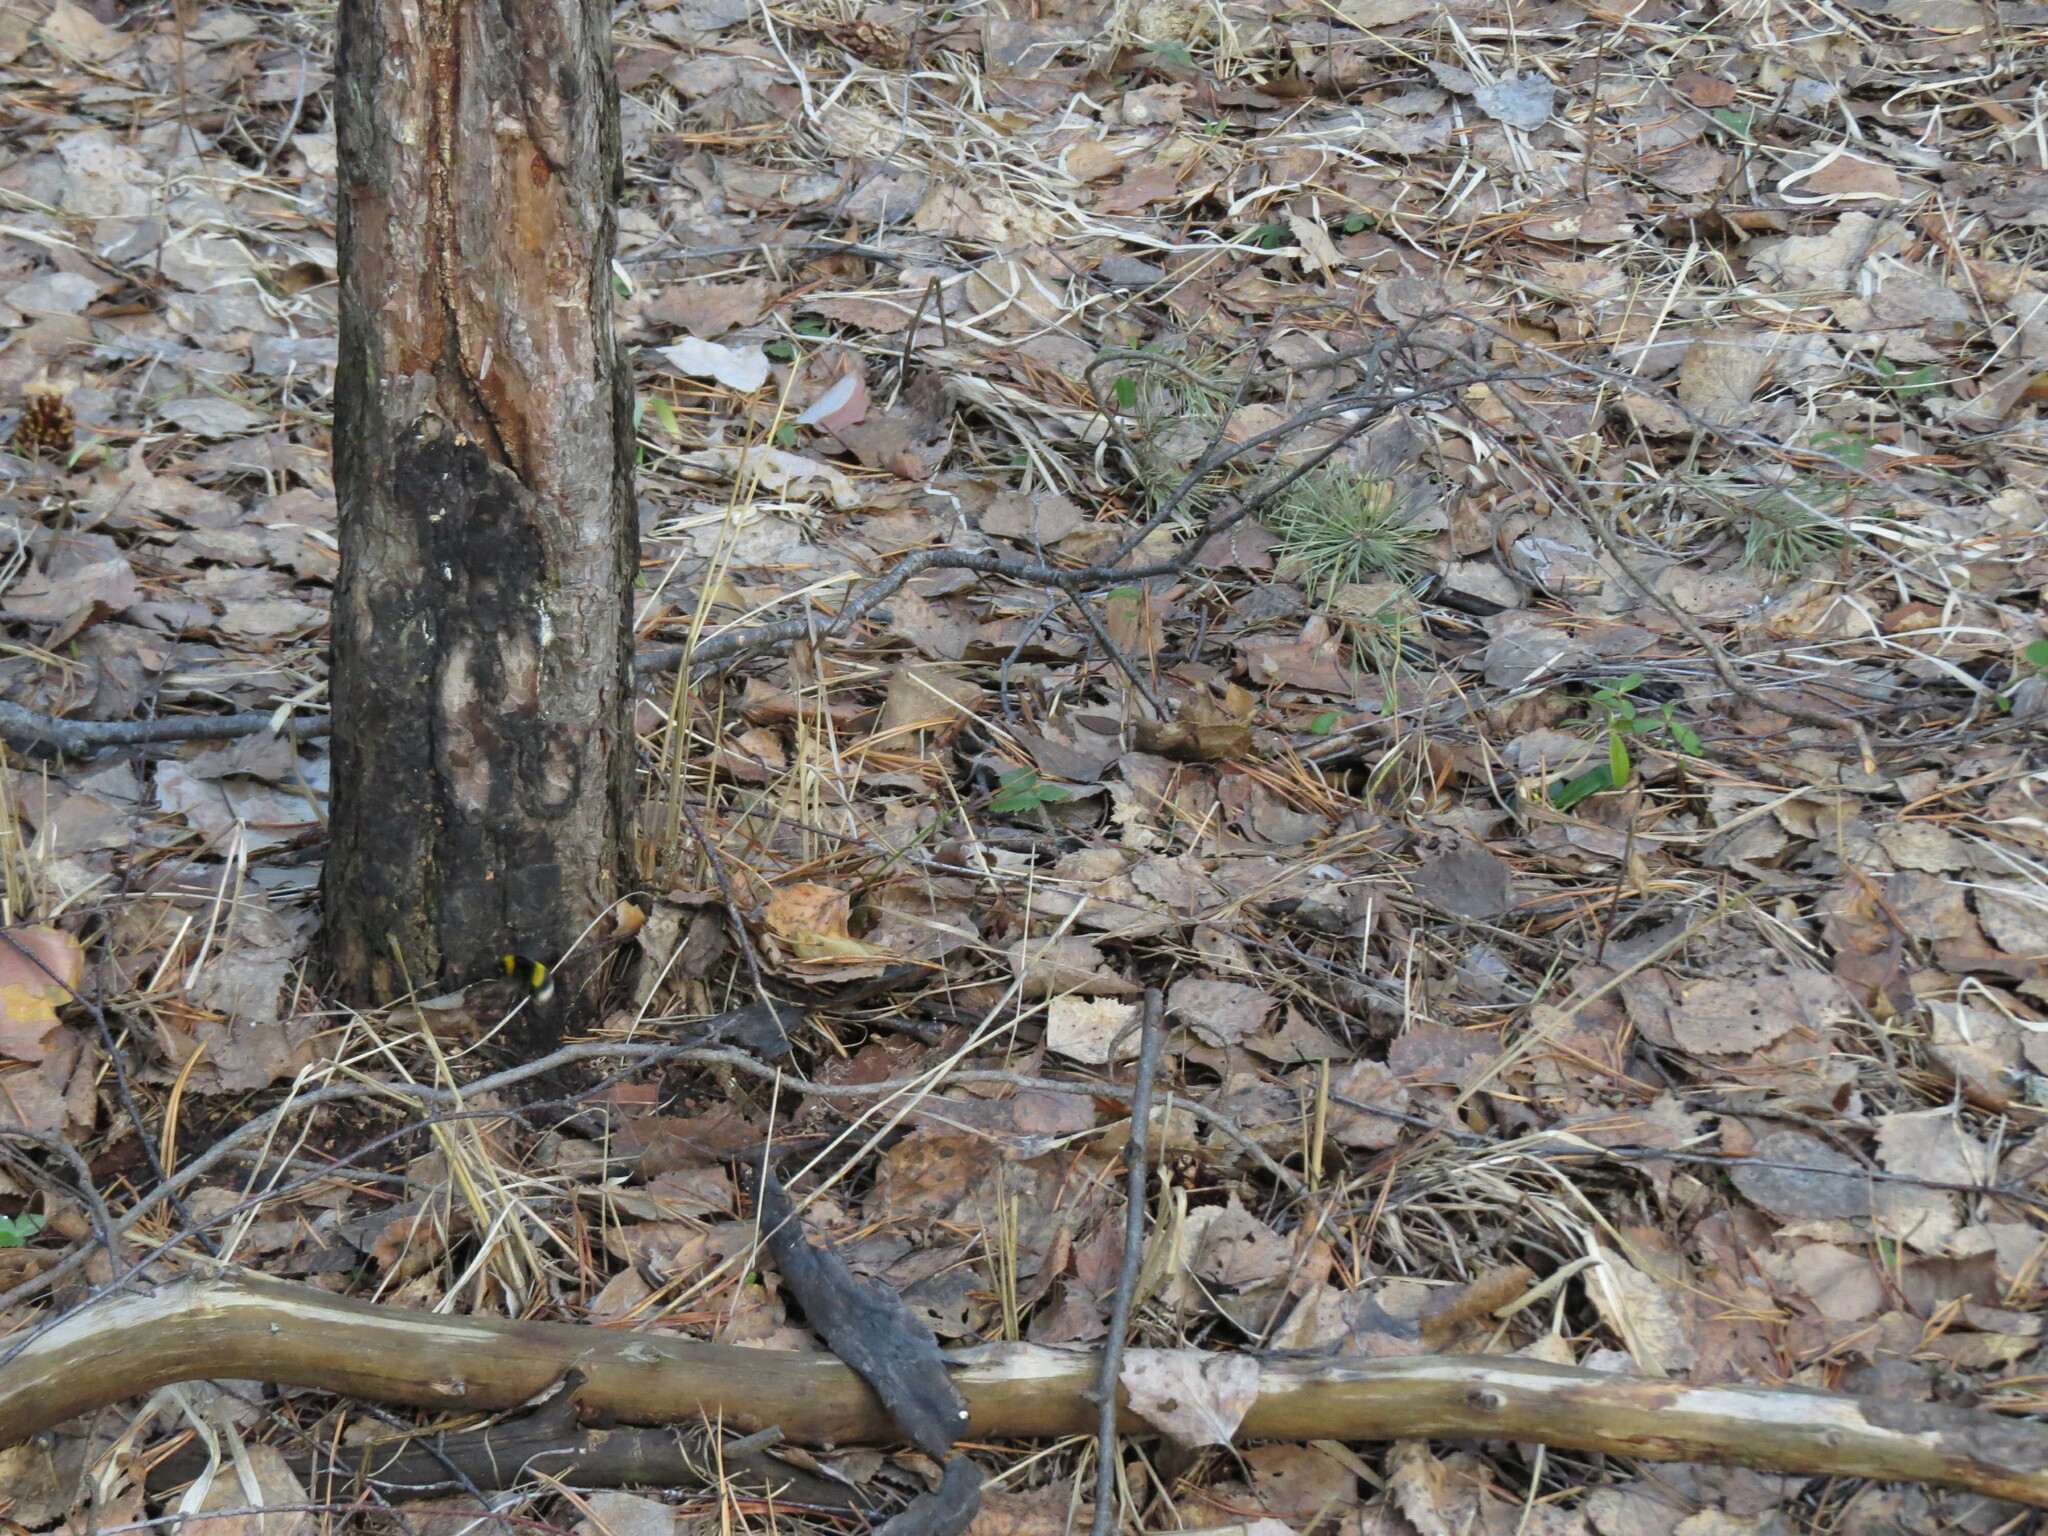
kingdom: Animalia
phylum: Arthropoda
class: Insecta
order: Hymenoptera
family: Apidae
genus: Bombus
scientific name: Bombus
